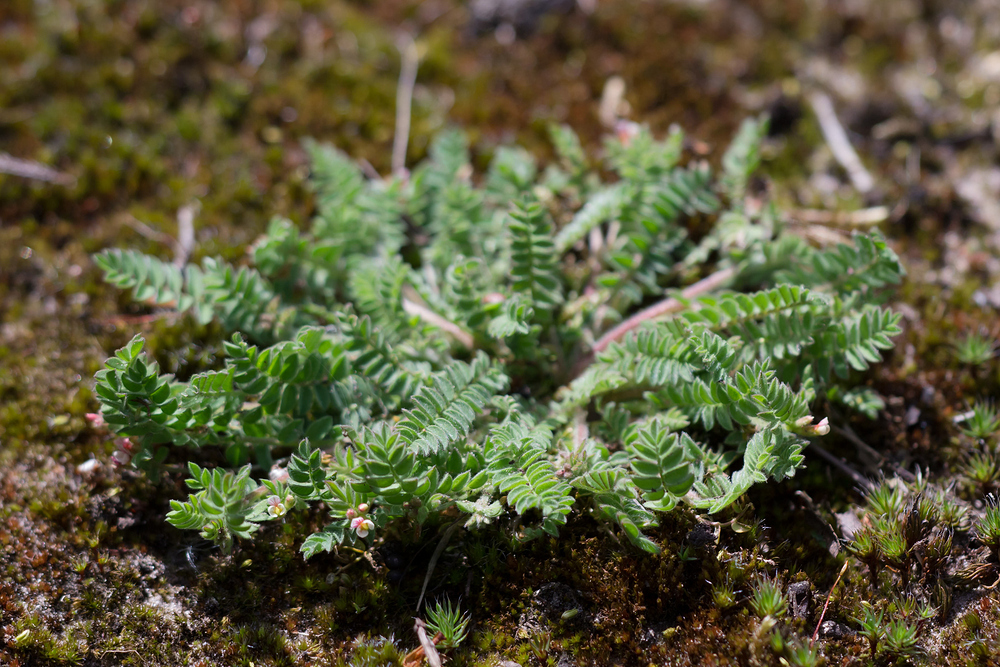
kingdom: Plantae
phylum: Tracheophyta
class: Magnoliopsida
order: Fabales
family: Fabaceae
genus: Ornithopus
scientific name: Ornithopus perpusillus
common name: Bird's-foot
